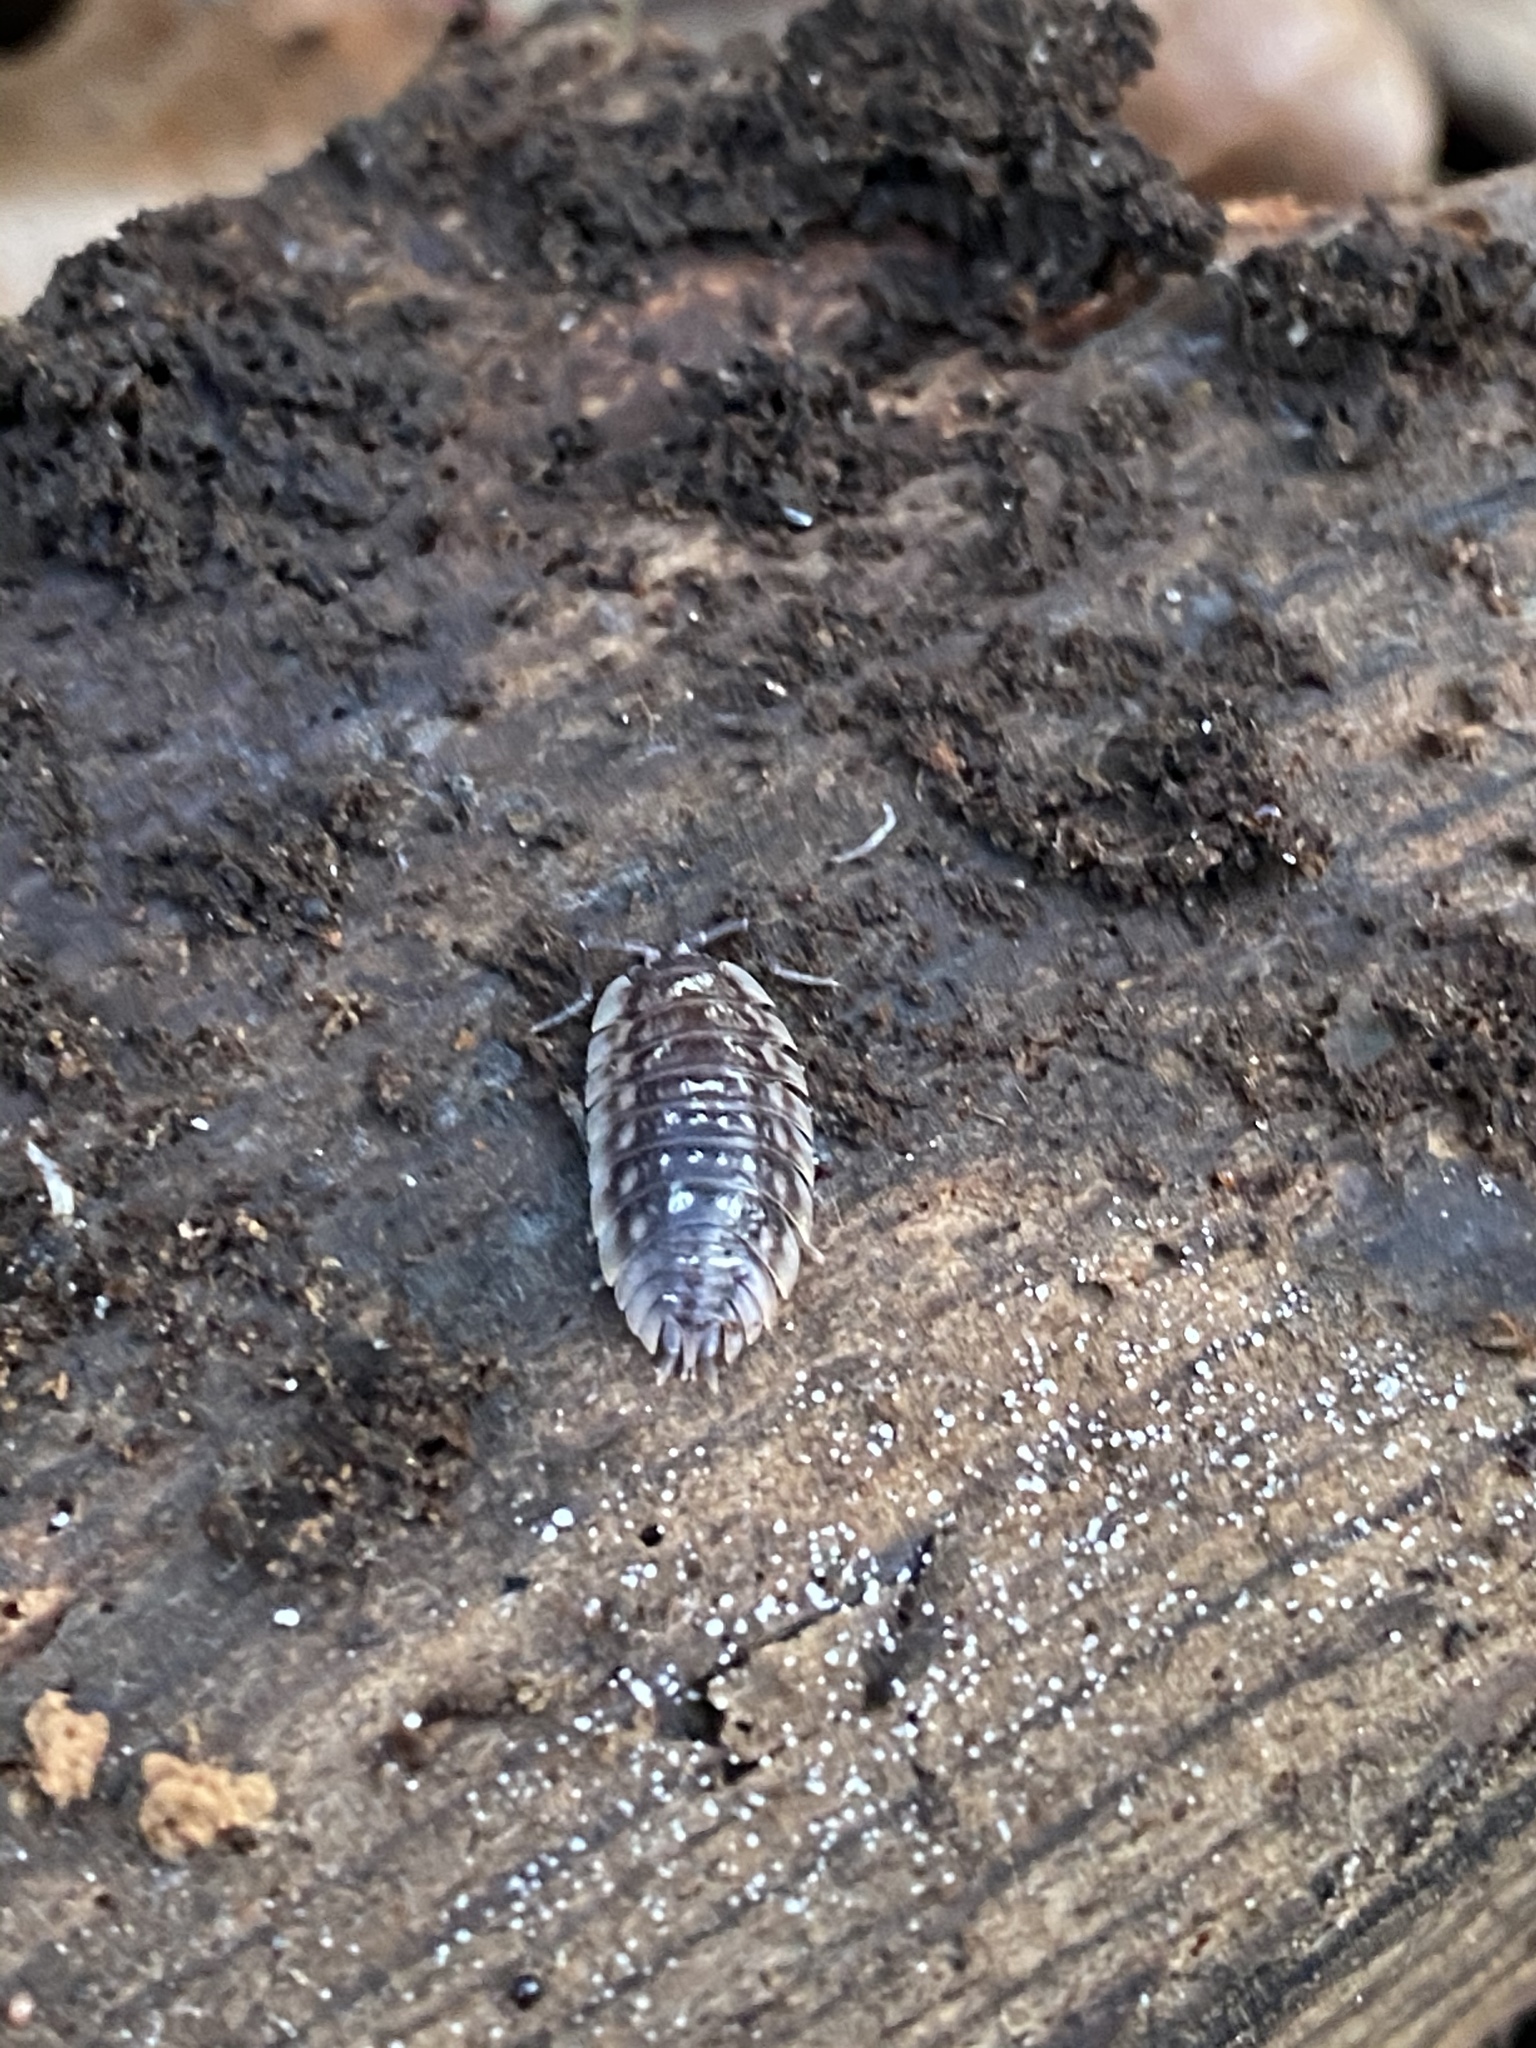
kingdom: Animalia
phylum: Arthropoda
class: Malacostraca
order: Isopoda
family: Oniscidae
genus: Oniscus
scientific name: Oniscus asellus
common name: Common shiny woodlouse
